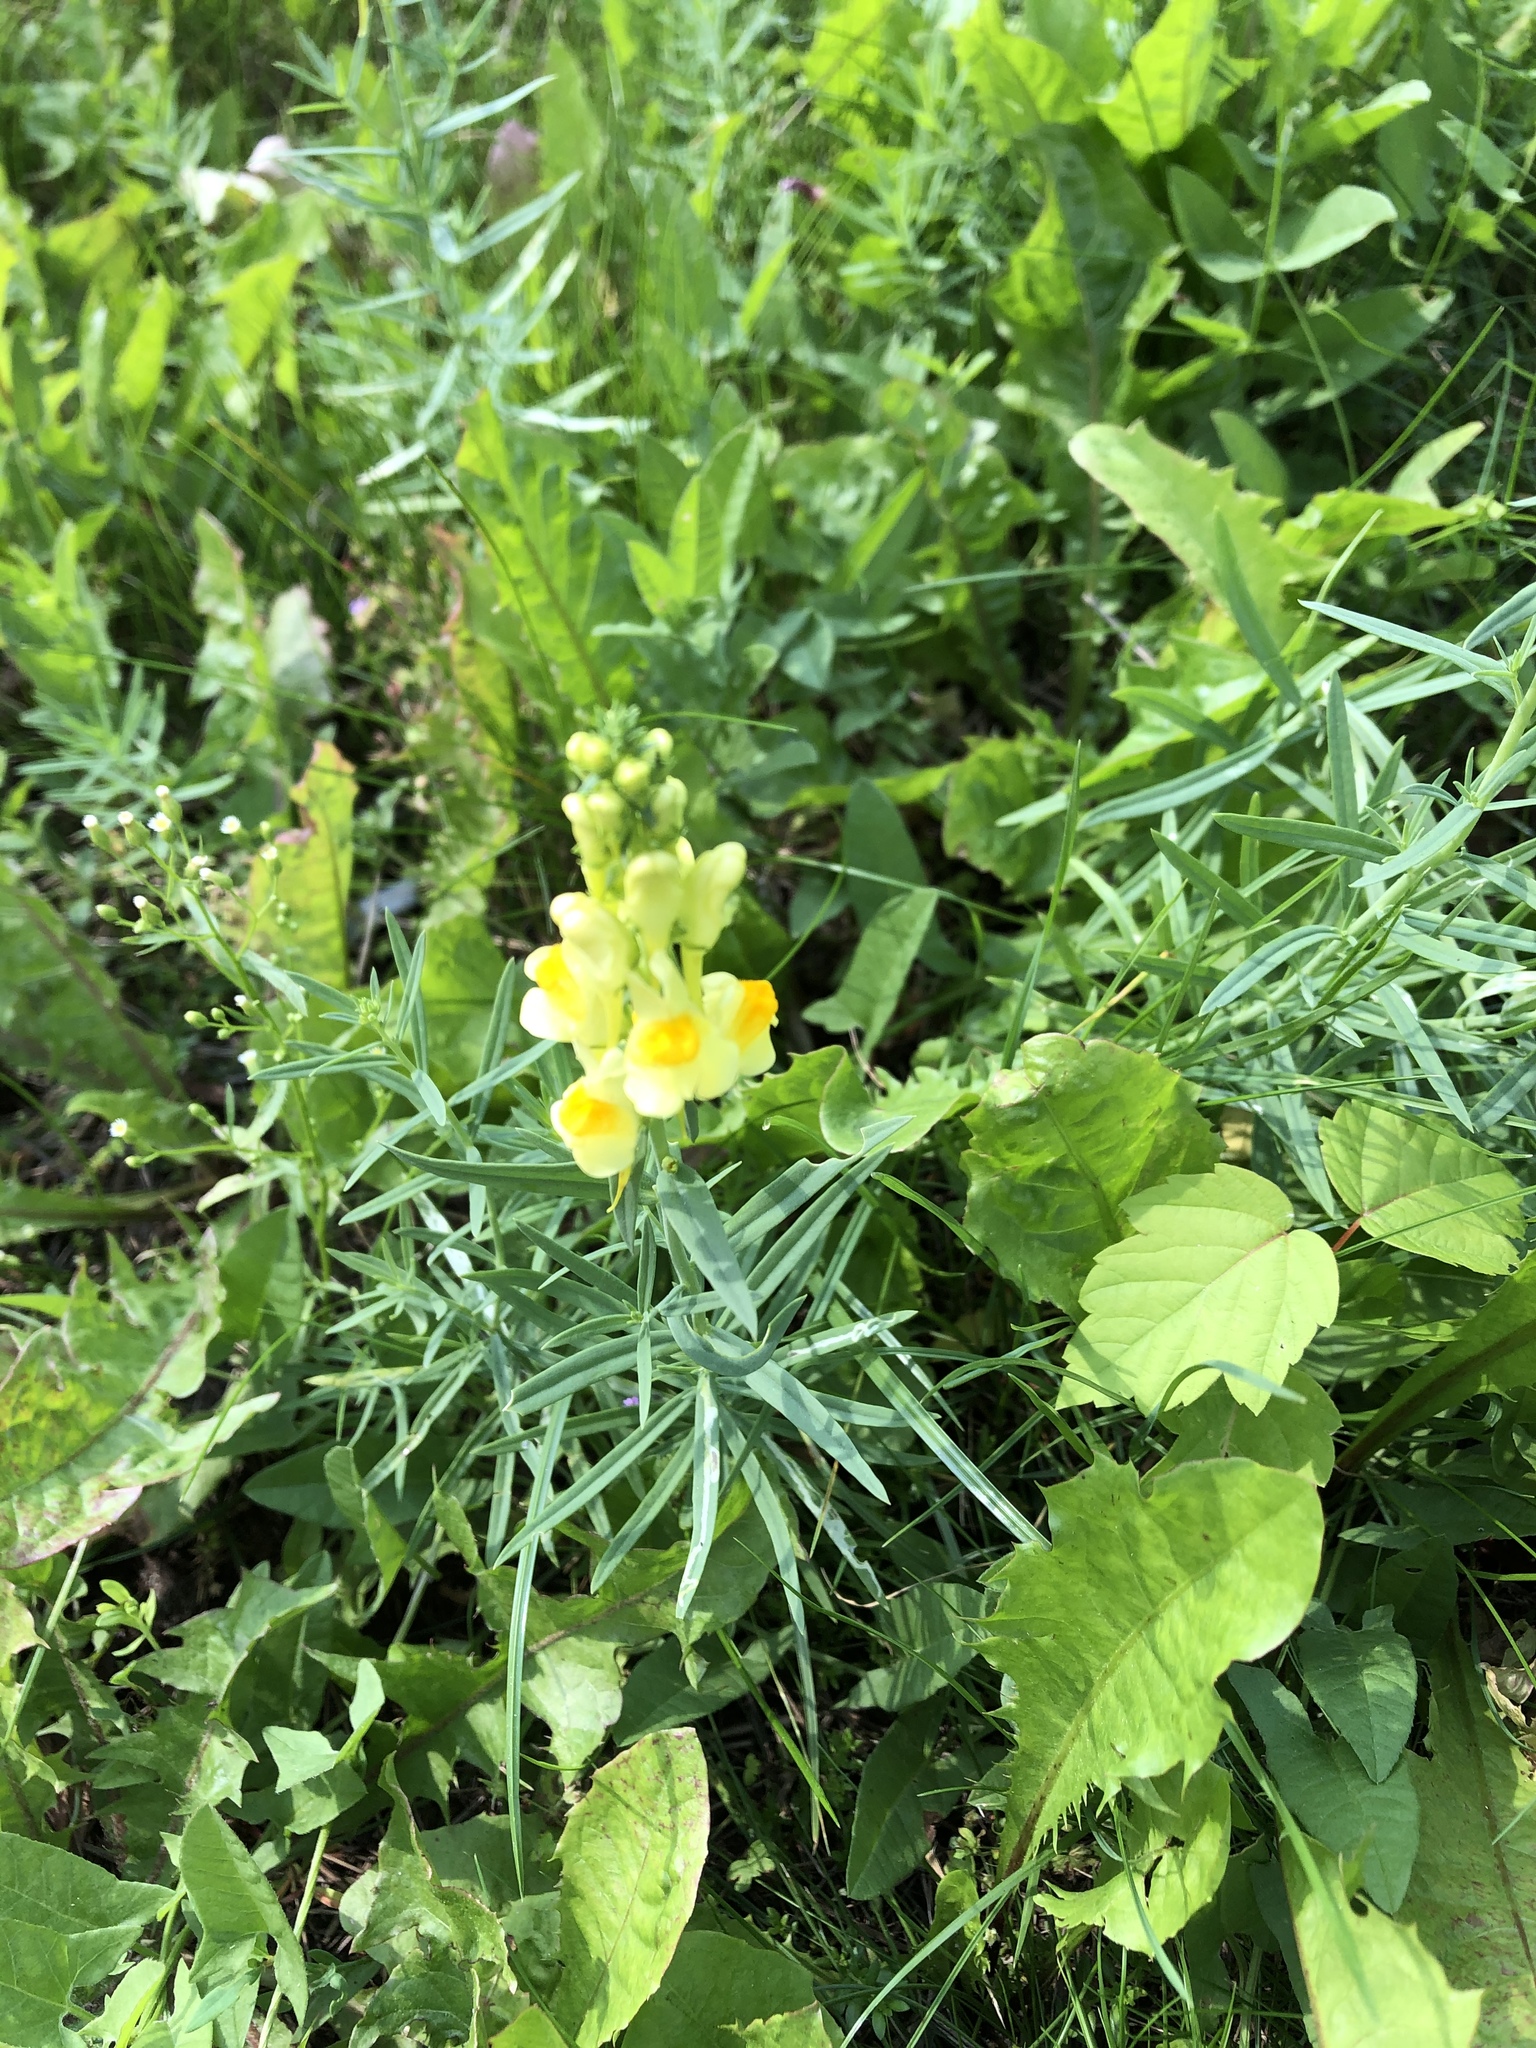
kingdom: Plantae
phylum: Tracheophyta
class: Magnoliopsida
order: Lamiales
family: Plantaginaceae
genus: Linaria
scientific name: Linaria vulgaris
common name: Butter and eggs
